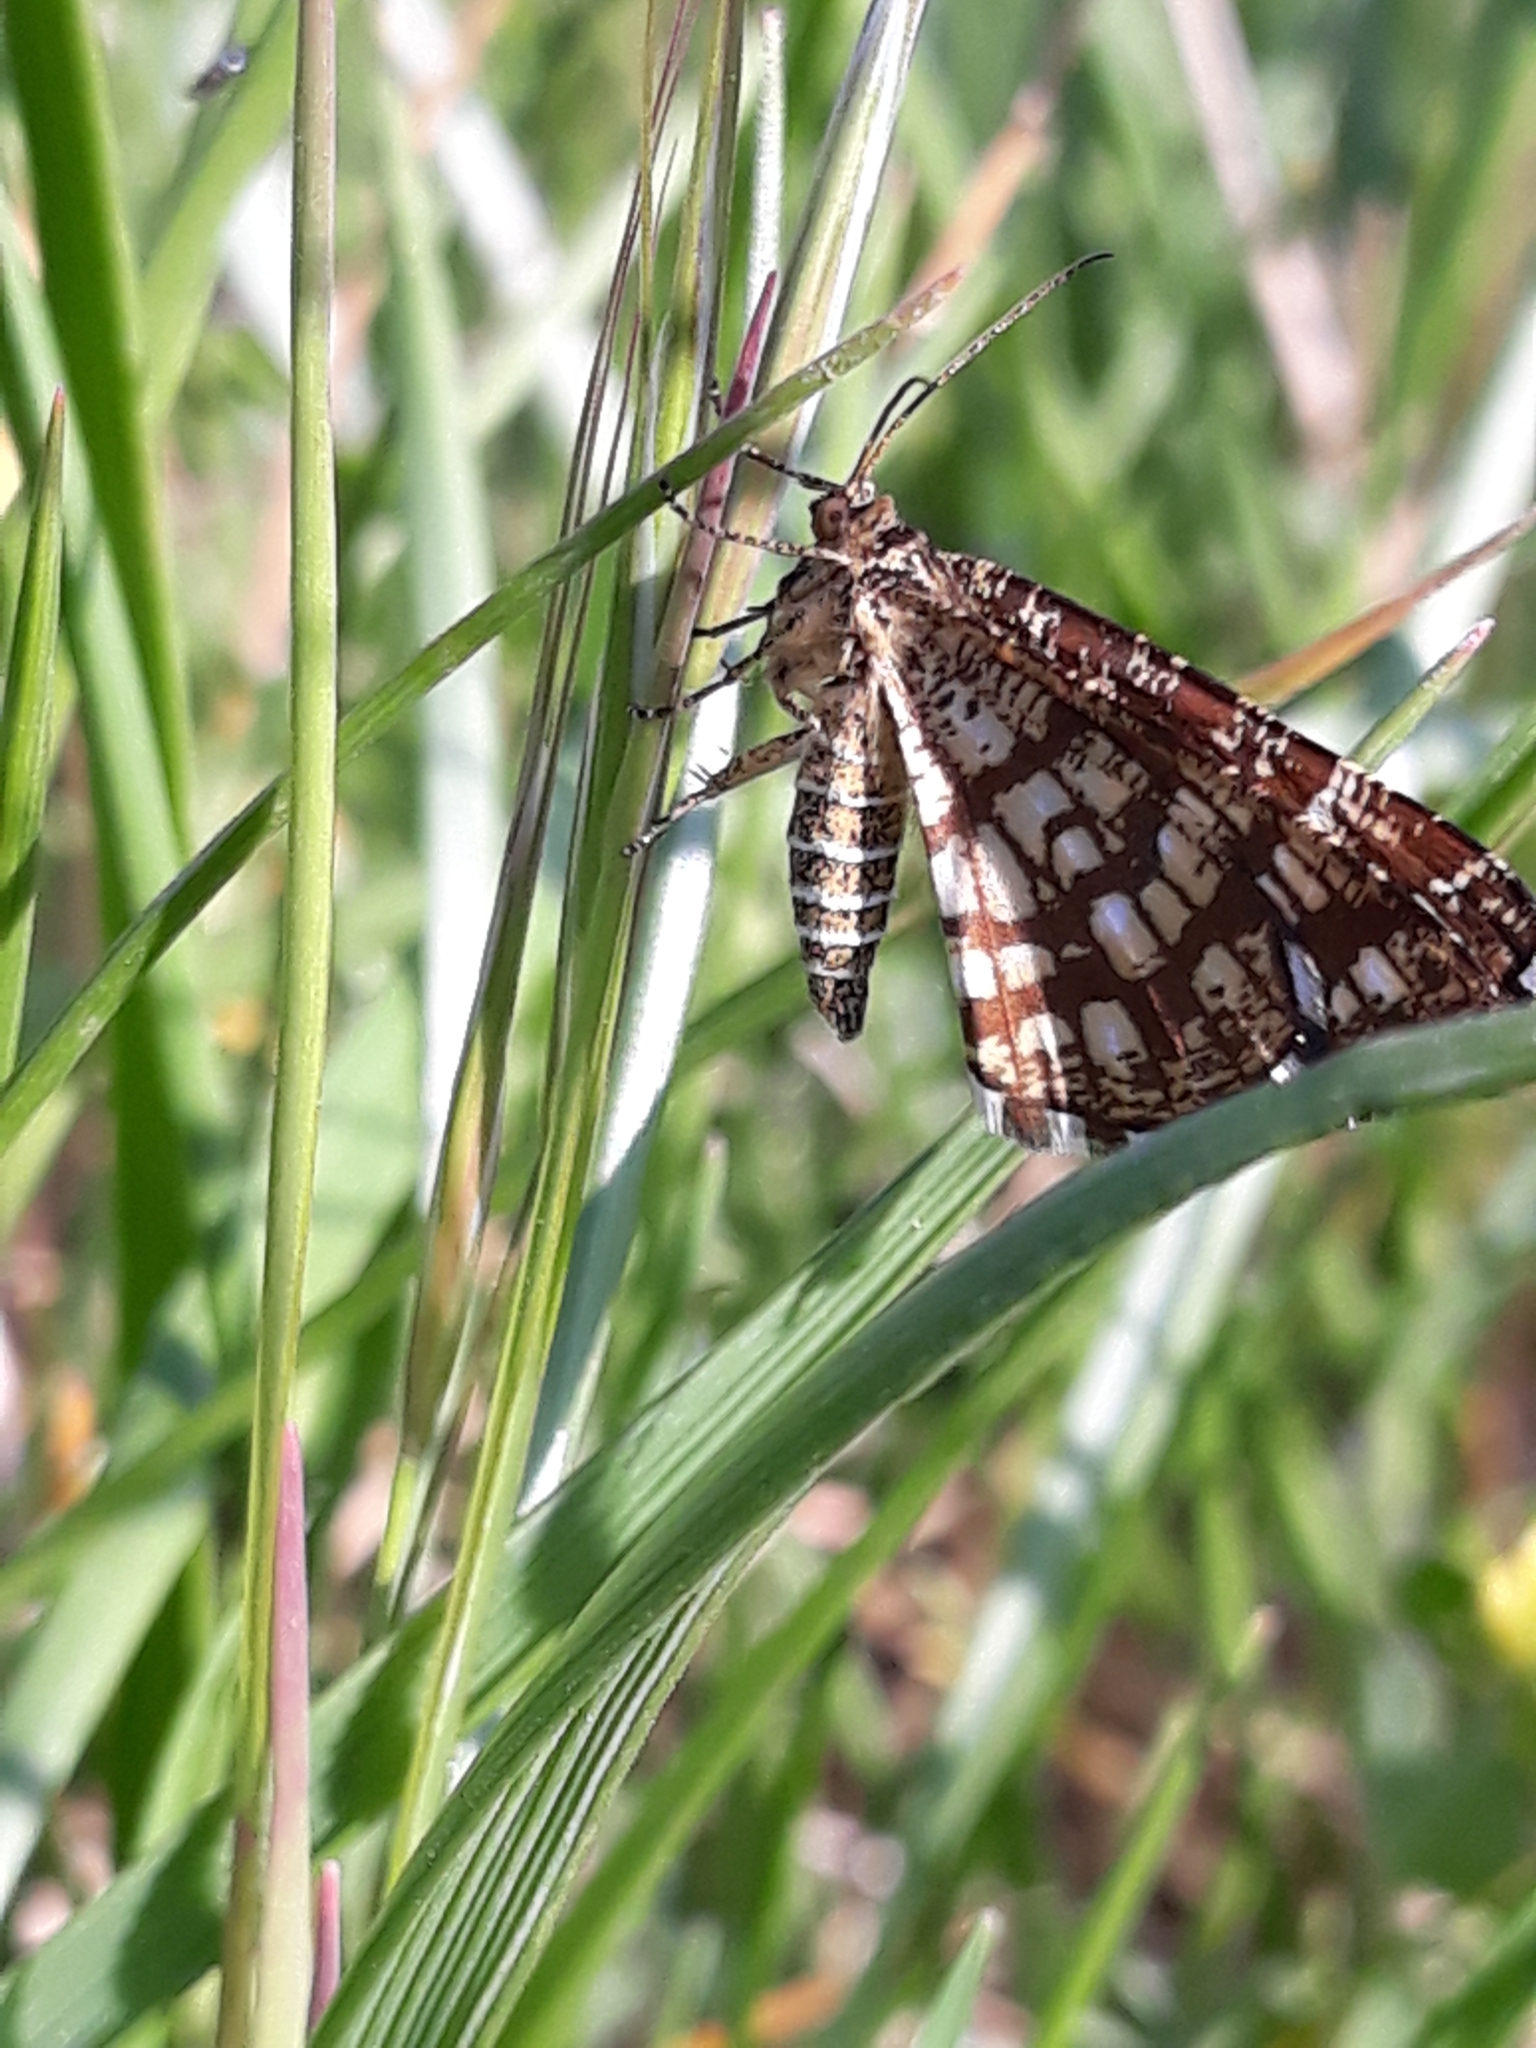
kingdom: Animalia
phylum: Arthropoda
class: Insecta
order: Lepidoptera
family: Geometridae
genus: Chiasmia
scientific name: Chiasmia clathrata
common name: Latticed heath
